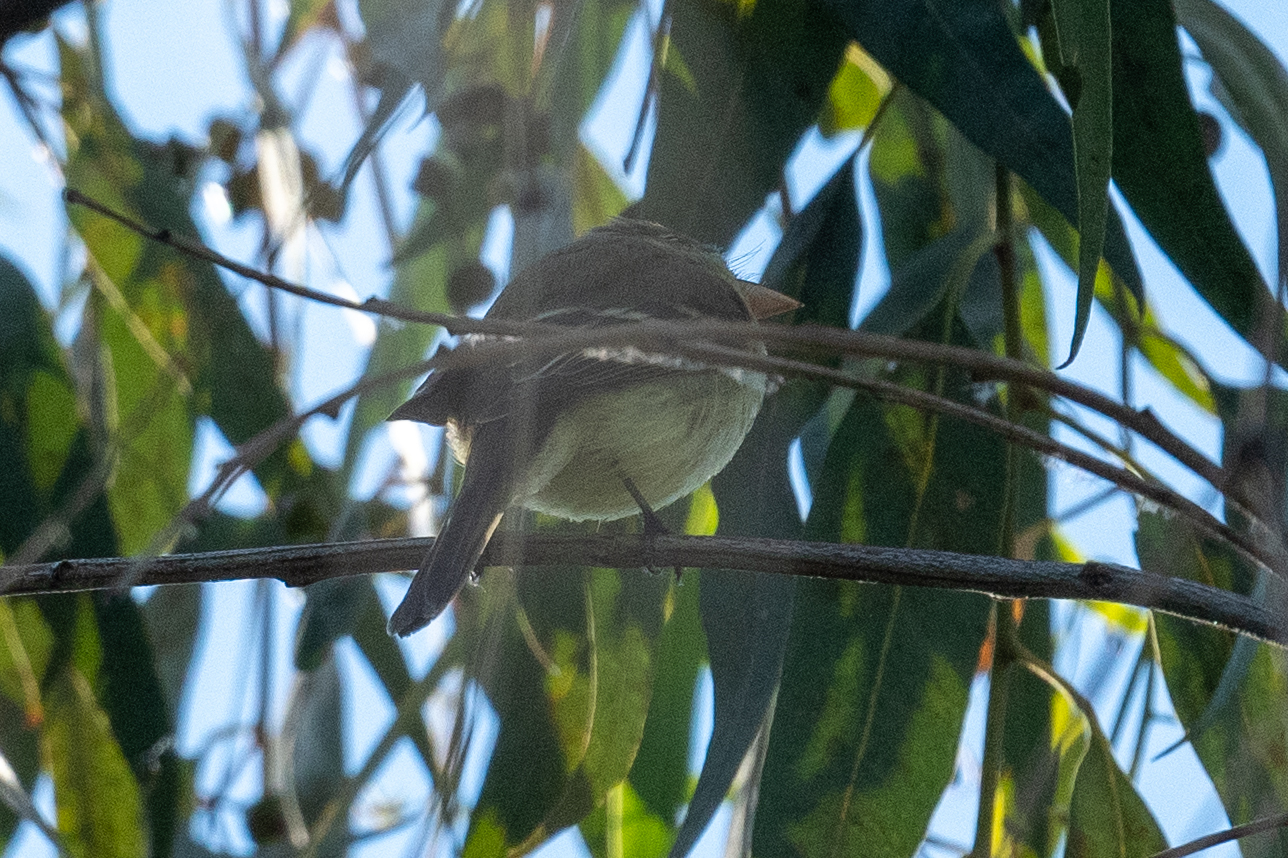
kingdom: Animalia
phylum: Chordata
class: Aves
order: Passeriformes
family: Tyrannidae
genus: Empidonax
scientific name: Empidonax difficilis
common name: Pacific-slope flycatcher
